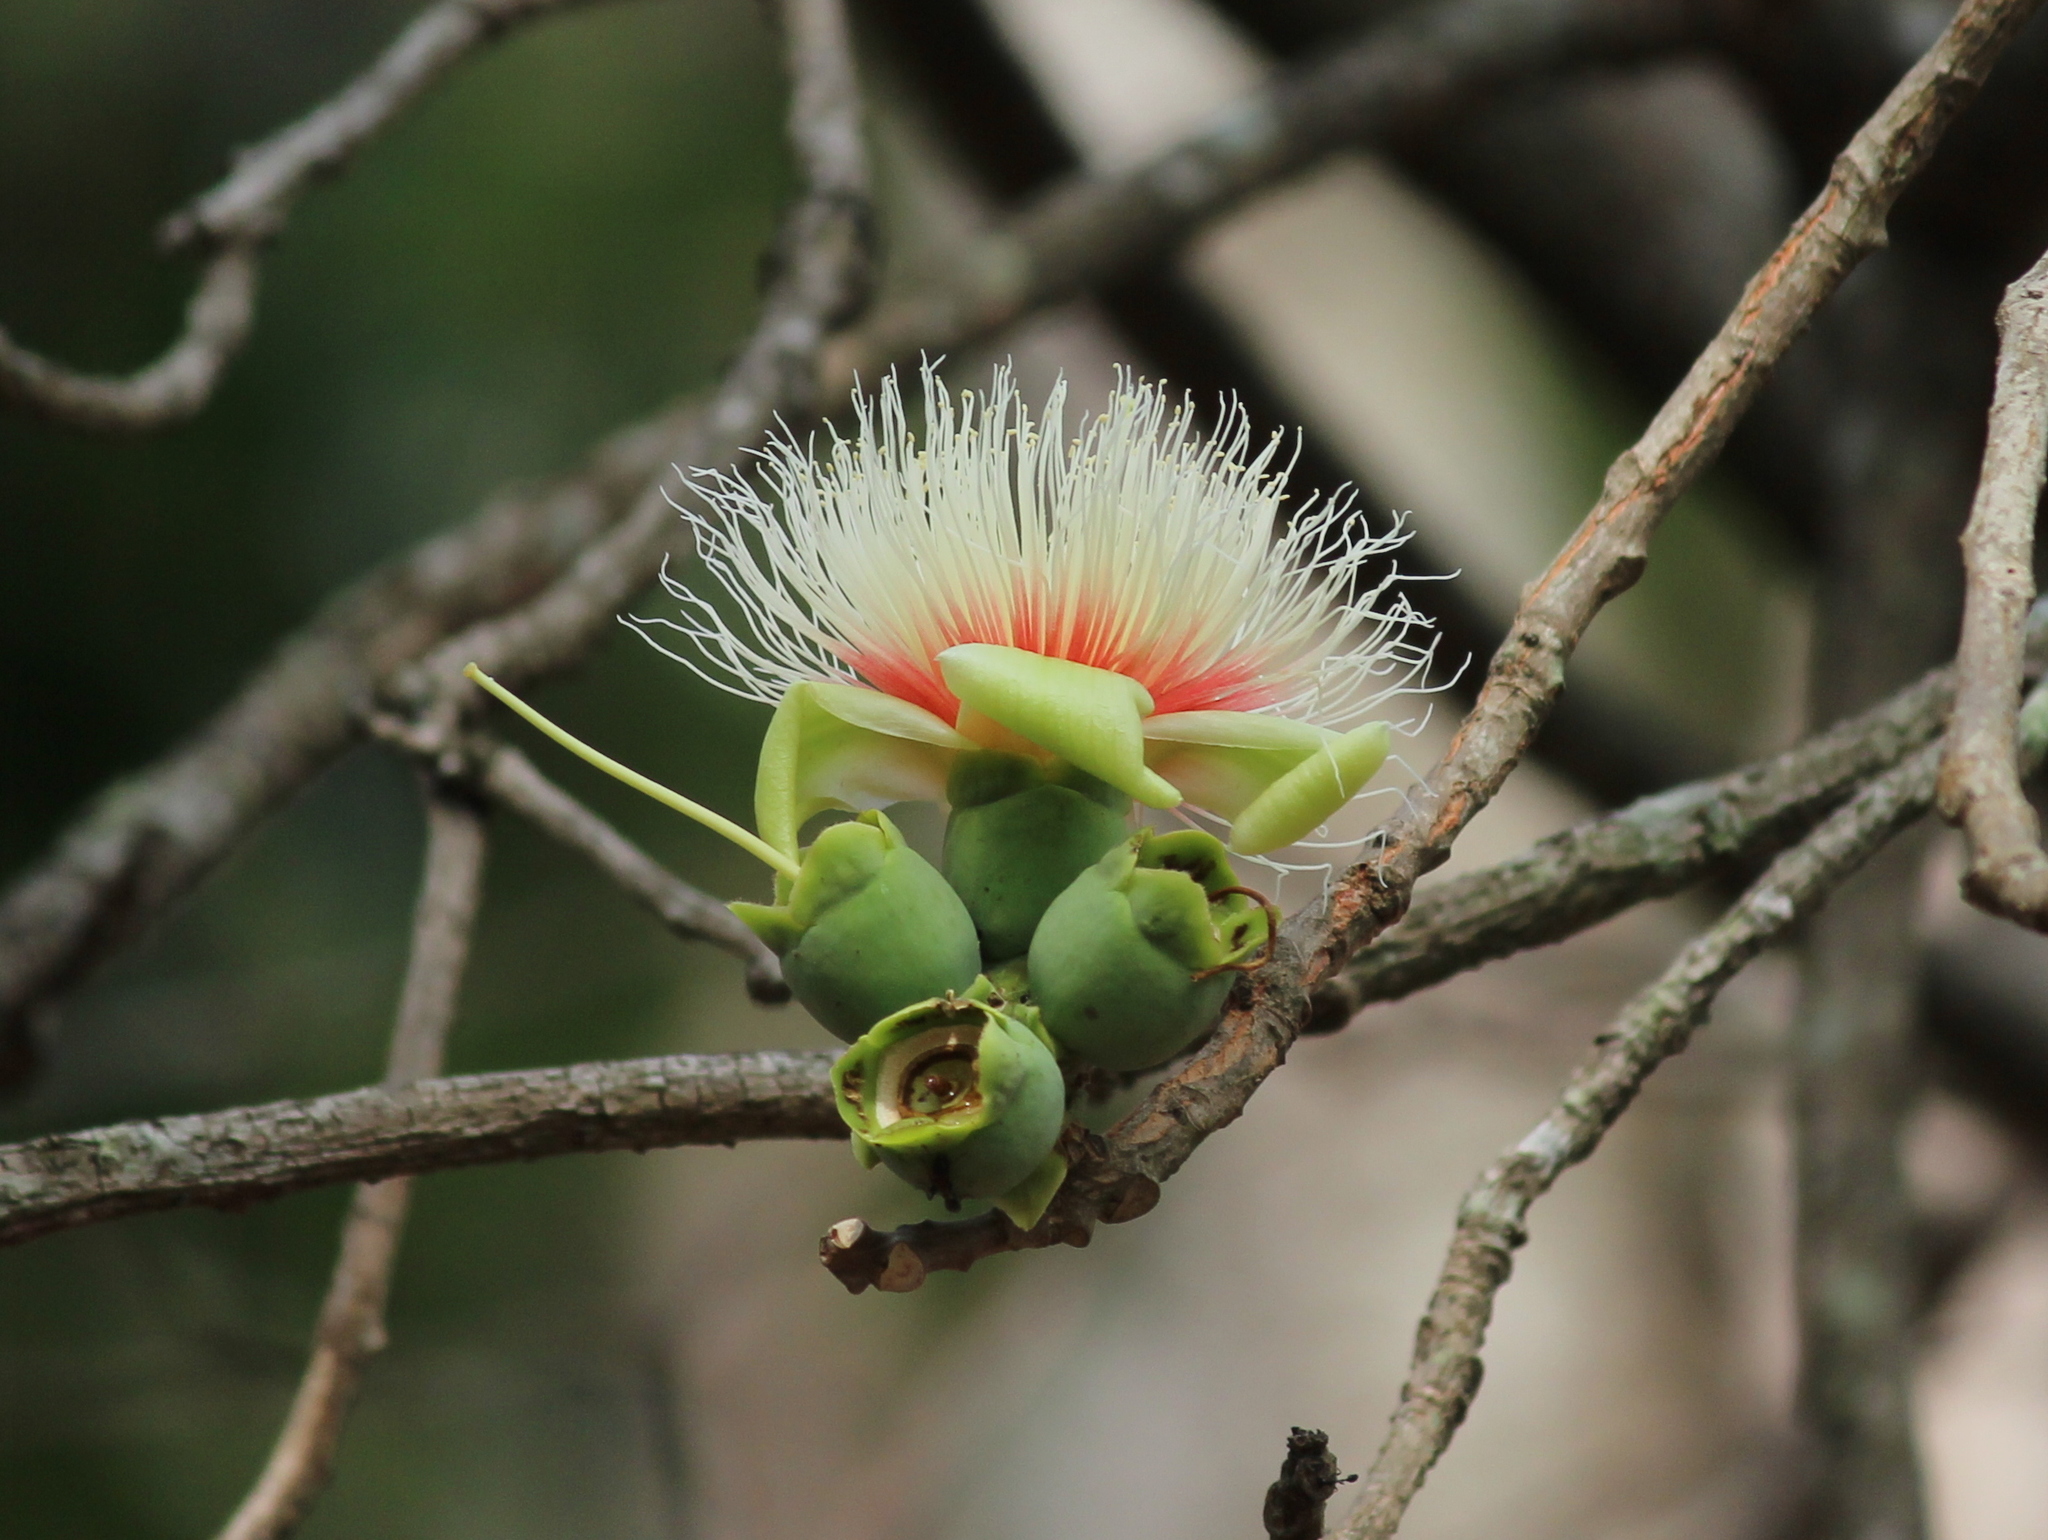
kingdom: Plantae
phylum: Tracheophyta
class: Magnoliopsida
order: Ericales
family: Lecythidaceae
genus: Careya
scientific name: Careya arborea
